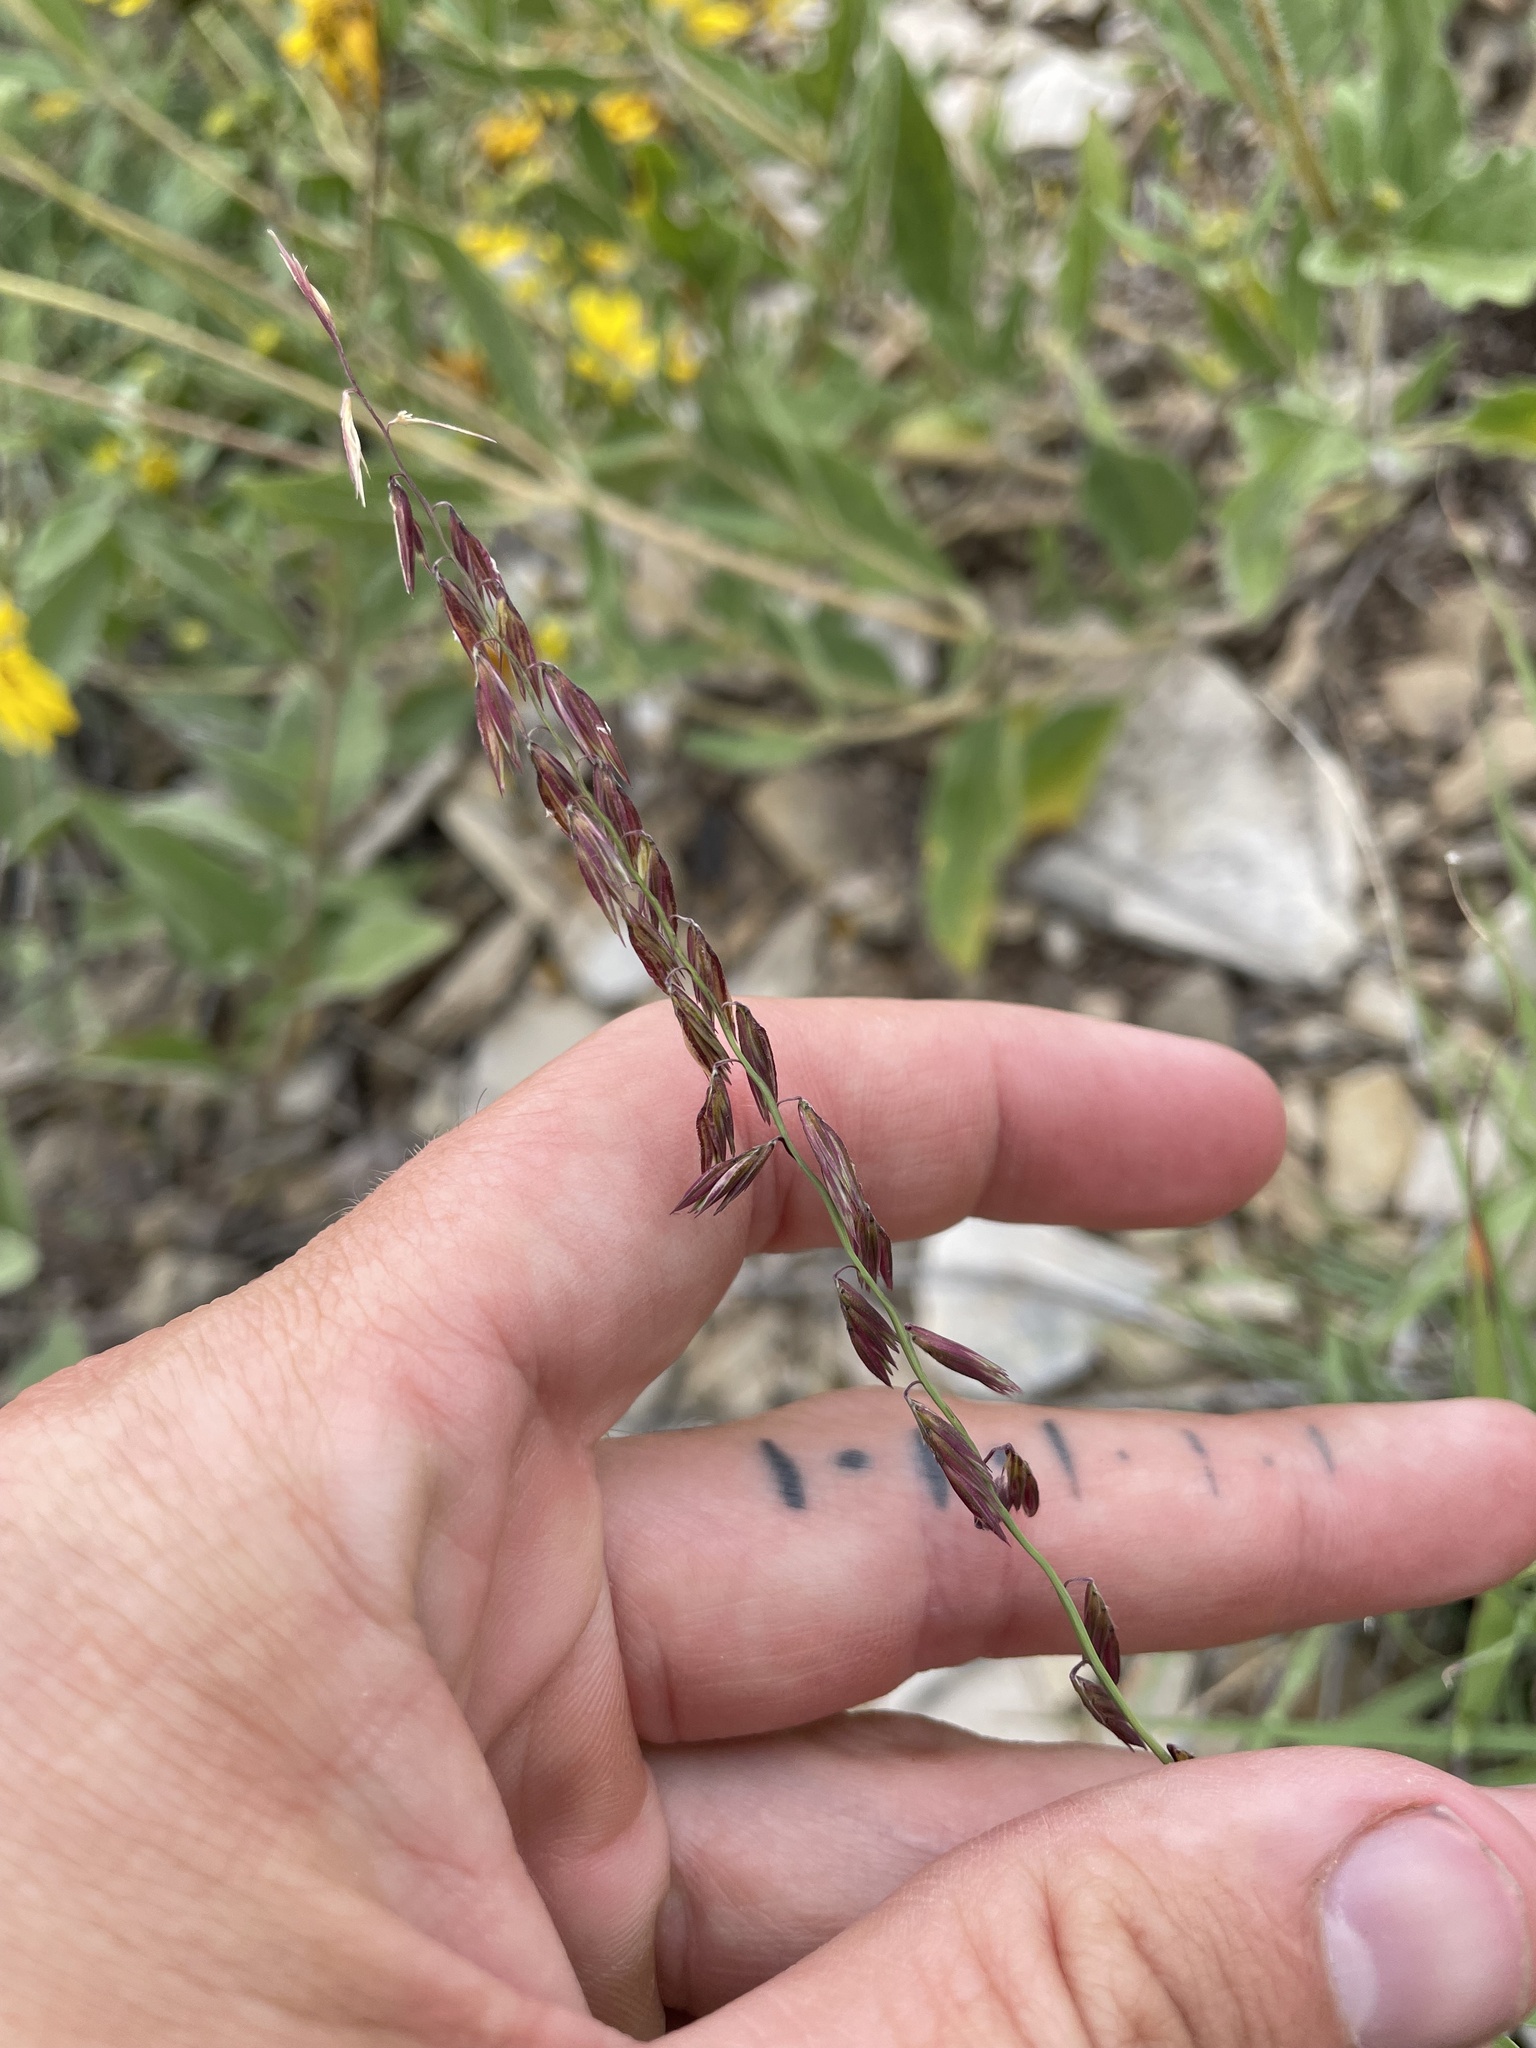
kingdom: Plantae
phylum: Tracheophyta
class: Liliopsida
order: Poales
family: Poaceae
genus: Bouteloua
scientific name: Bouteloua curtipendula
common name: Side-oats grama
